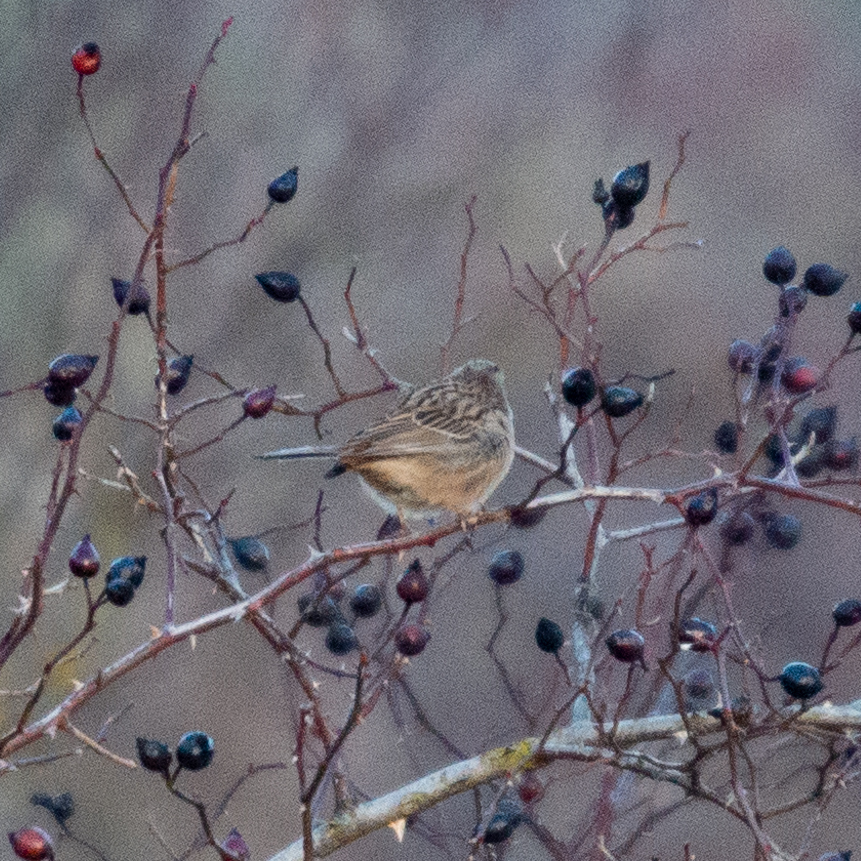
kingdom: Animalia
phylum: Chordata
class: Aves
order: Passeriformes
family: Emberizidae
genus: Emberiza
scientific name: Emberiza cia
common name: Rock bunting
